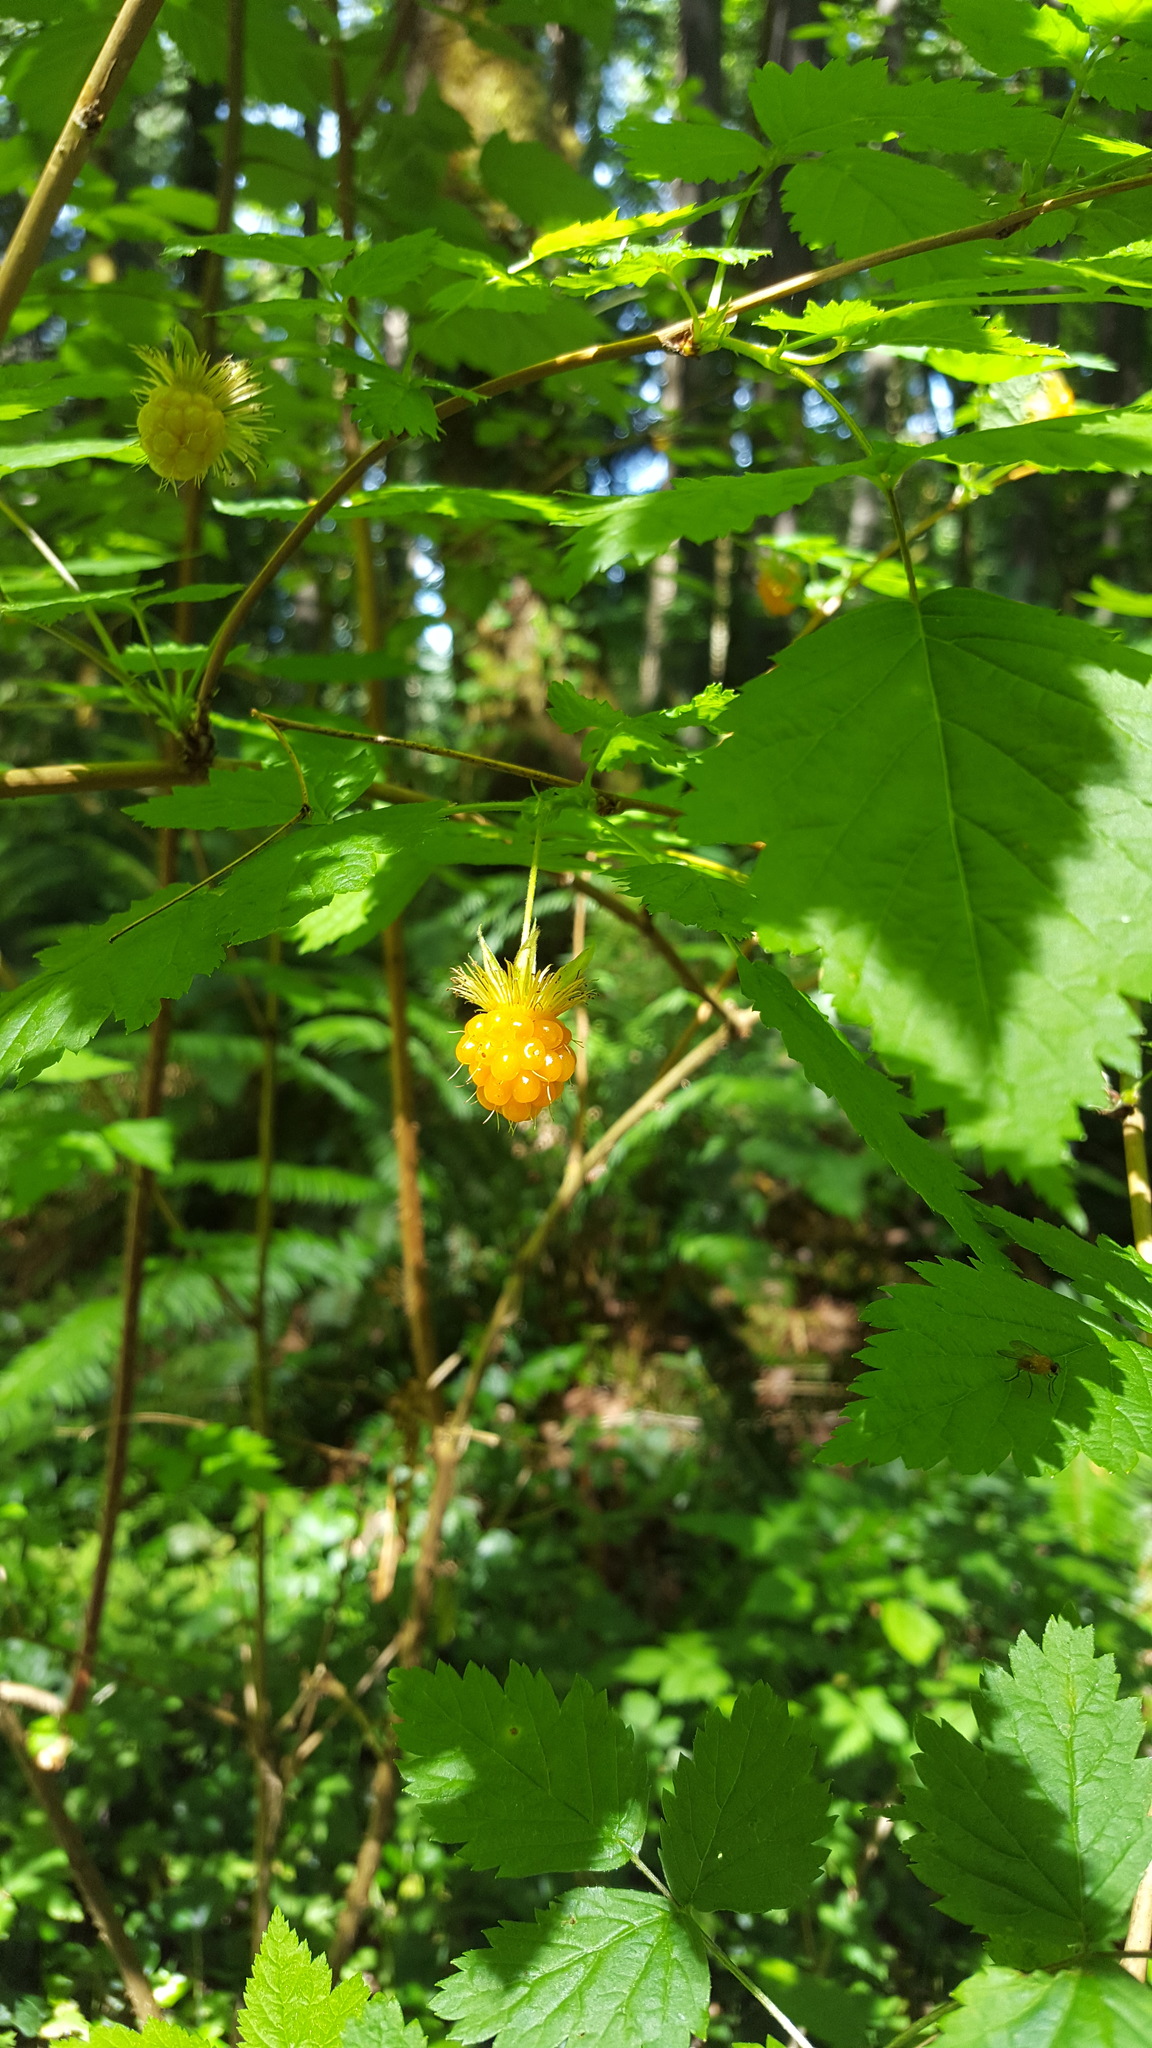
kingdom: Plantae
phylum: Tracheophyta
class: Magnoliopsida
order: Rosales
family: Rosaceae
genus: Rubus
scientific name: Rubus spectabilis
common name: Salmonberry
